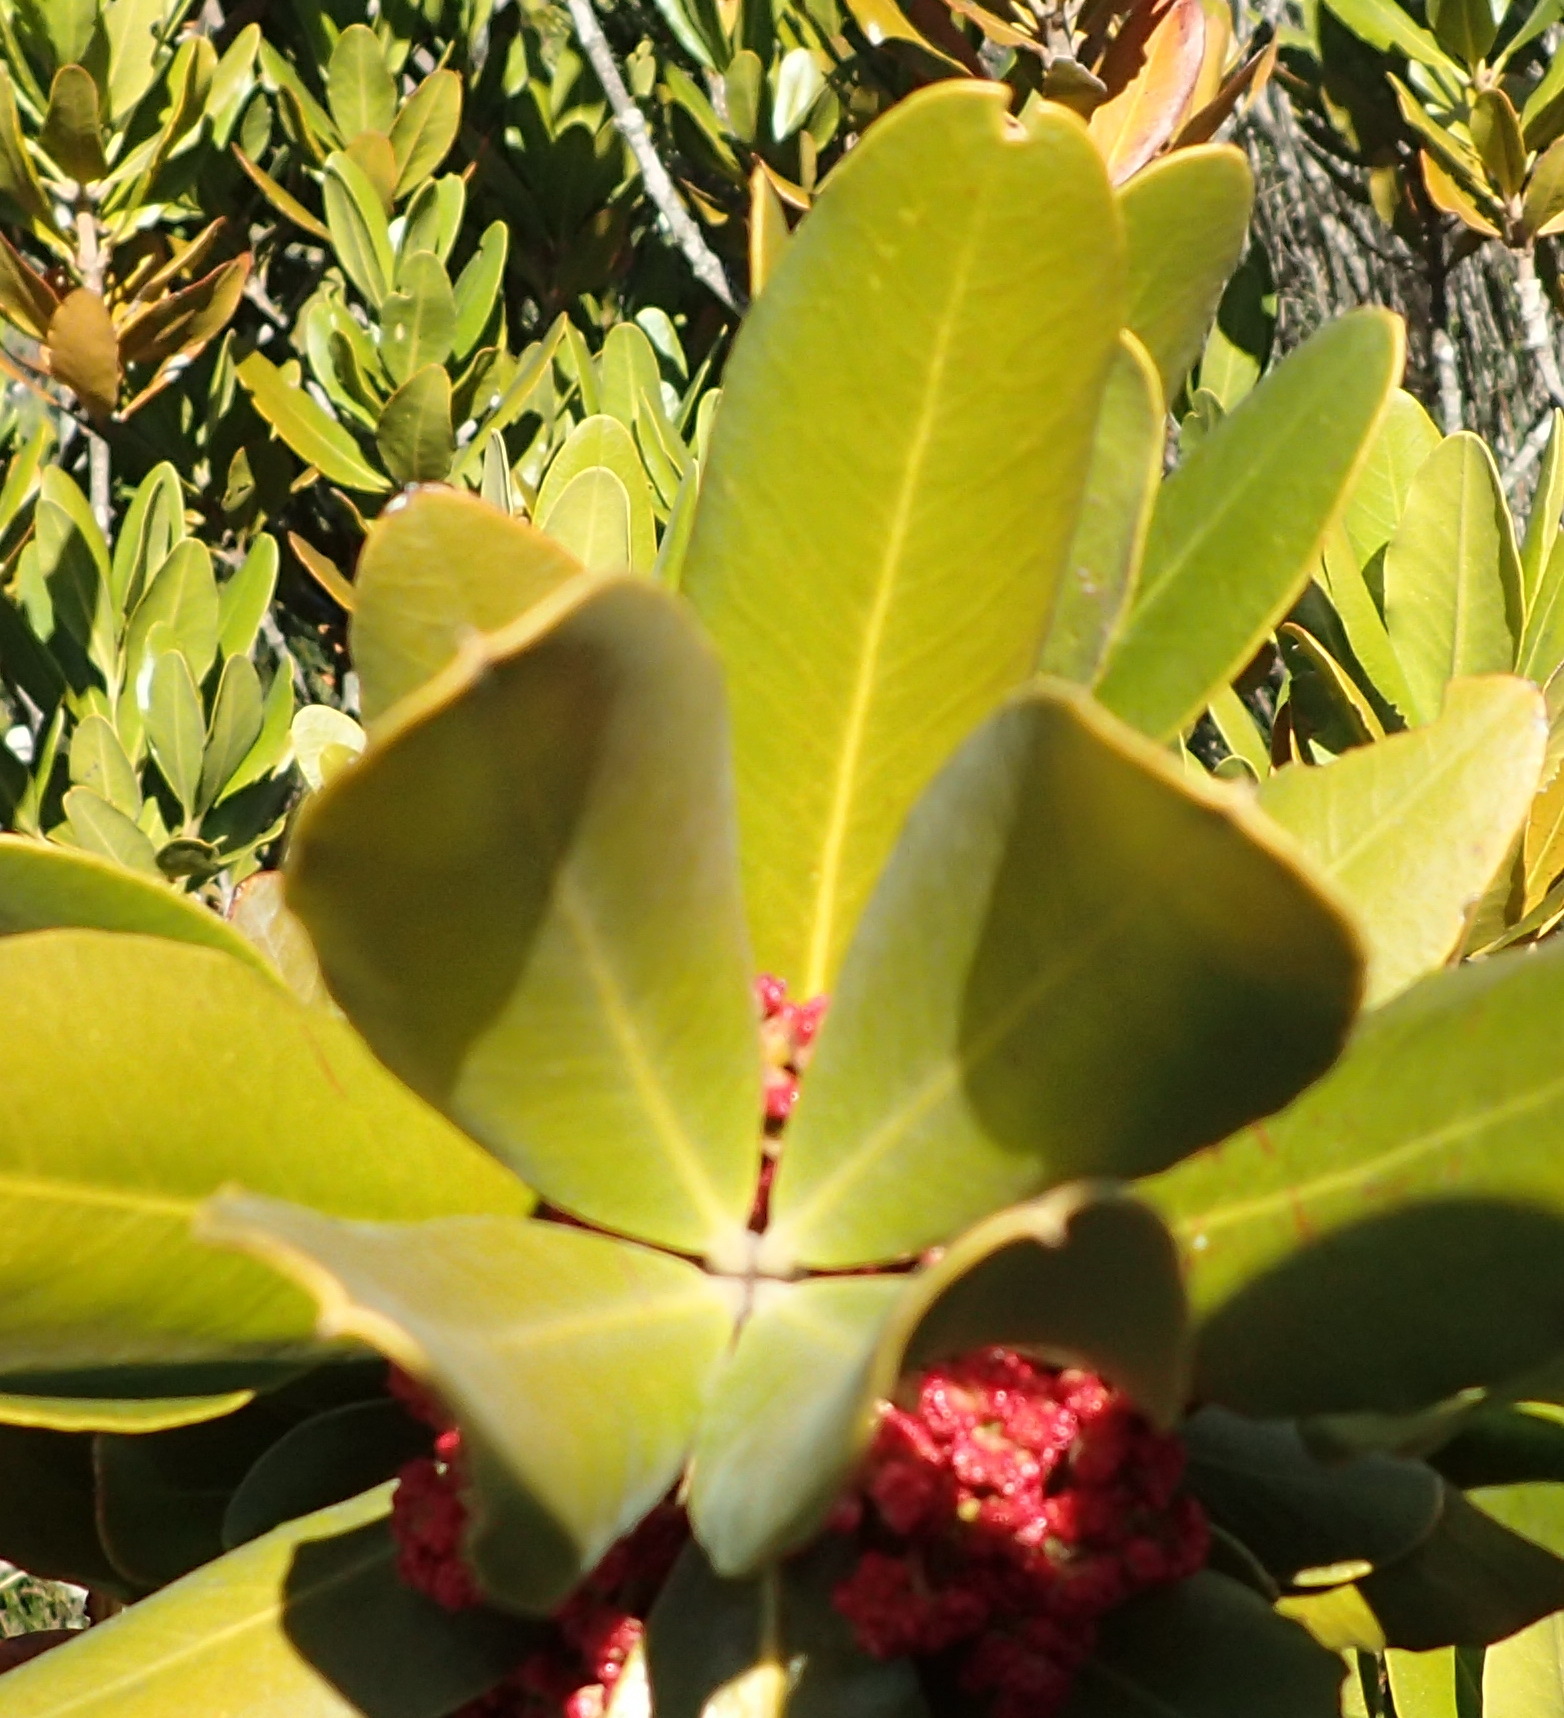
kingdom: Plantae
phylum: Tracheophyta
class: Magnoliopsida
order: Malpighiales
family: Picrodendraceae
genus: Hyaenanche
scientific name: Hyaenanche globosa
